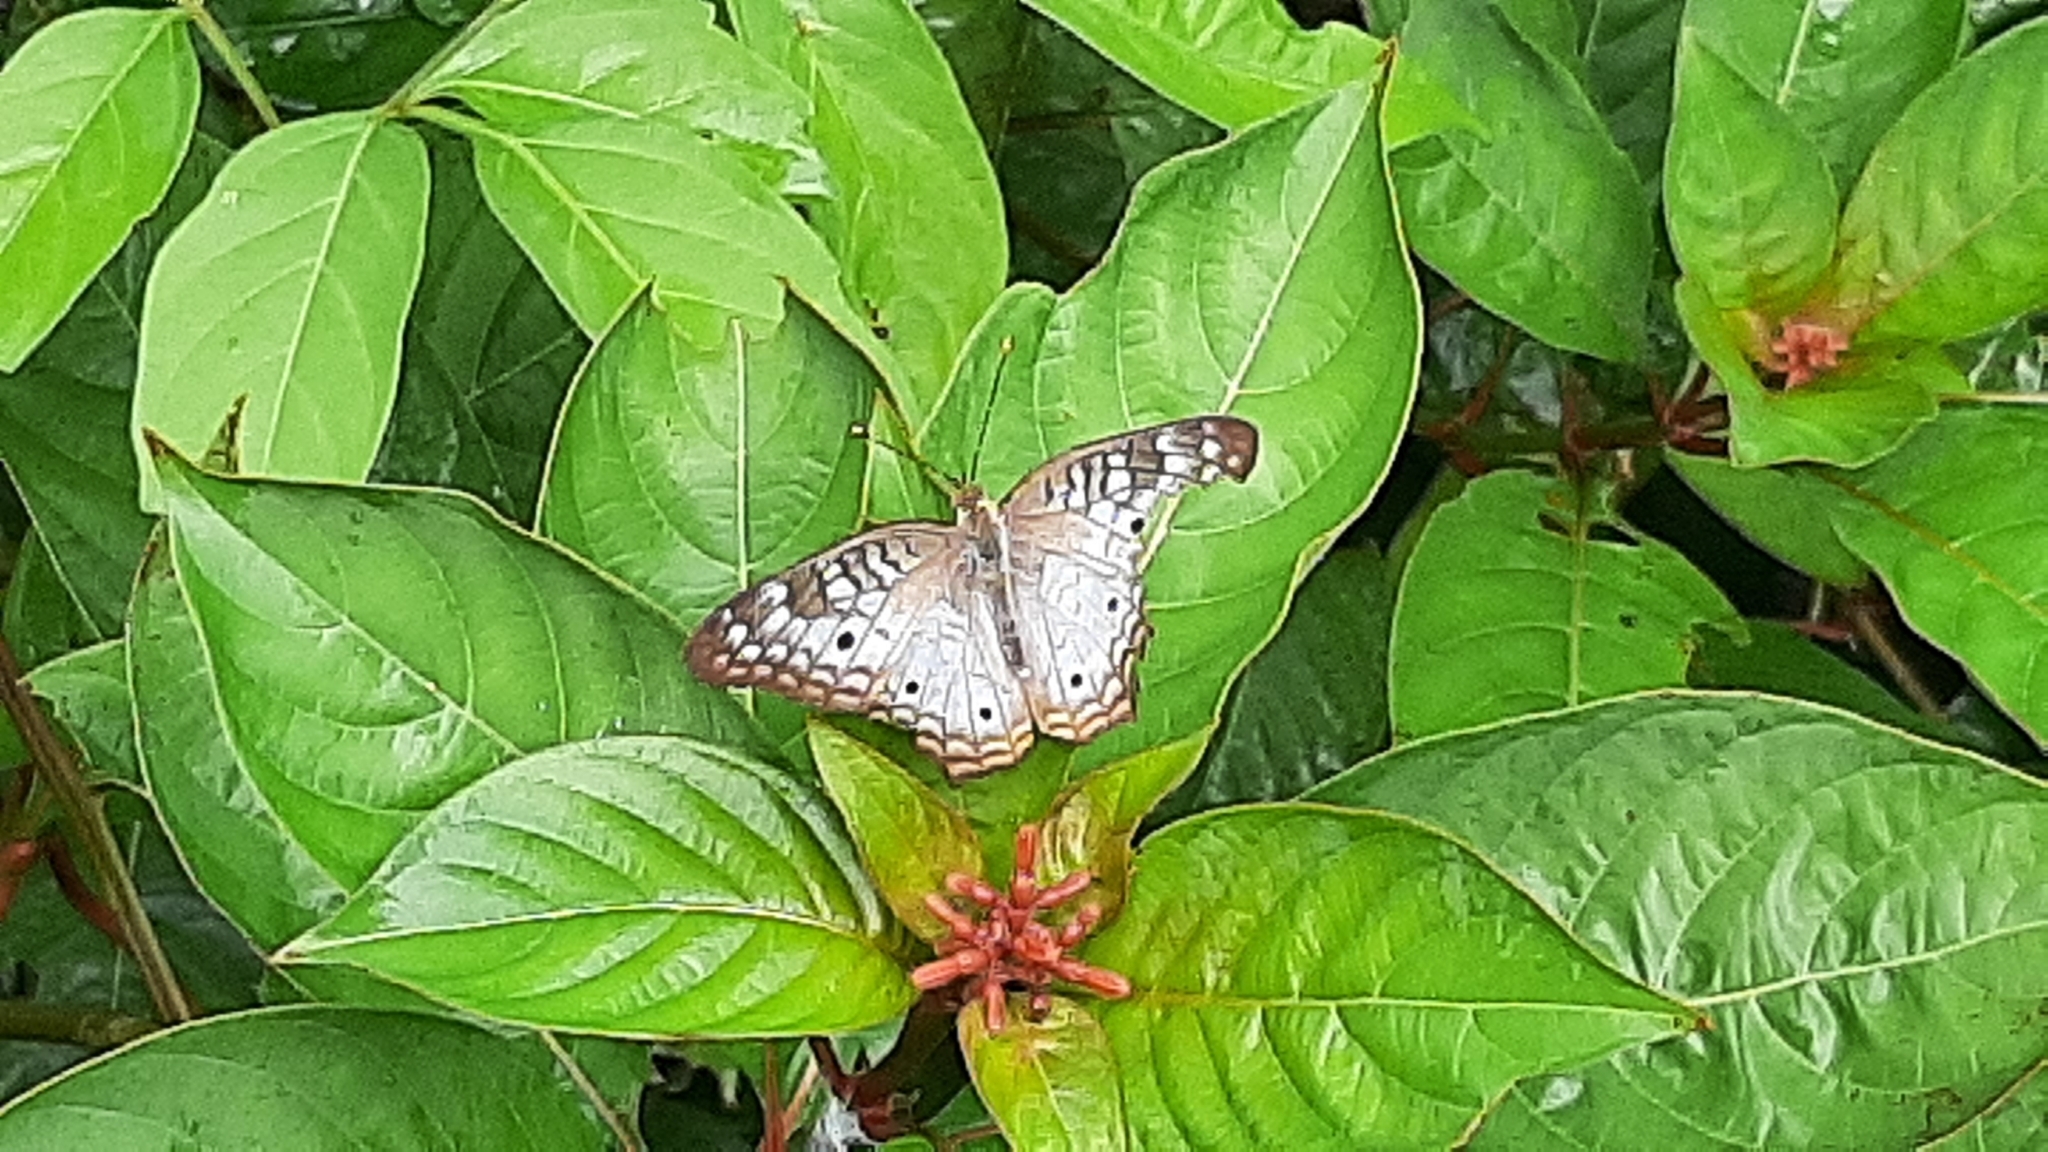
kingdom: Animalia
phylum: Arthropoda
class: Insecta
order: Lepidoptera
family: Nymphalidae
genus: Anartia
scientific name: Anartia jatrophae
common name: White peacock
